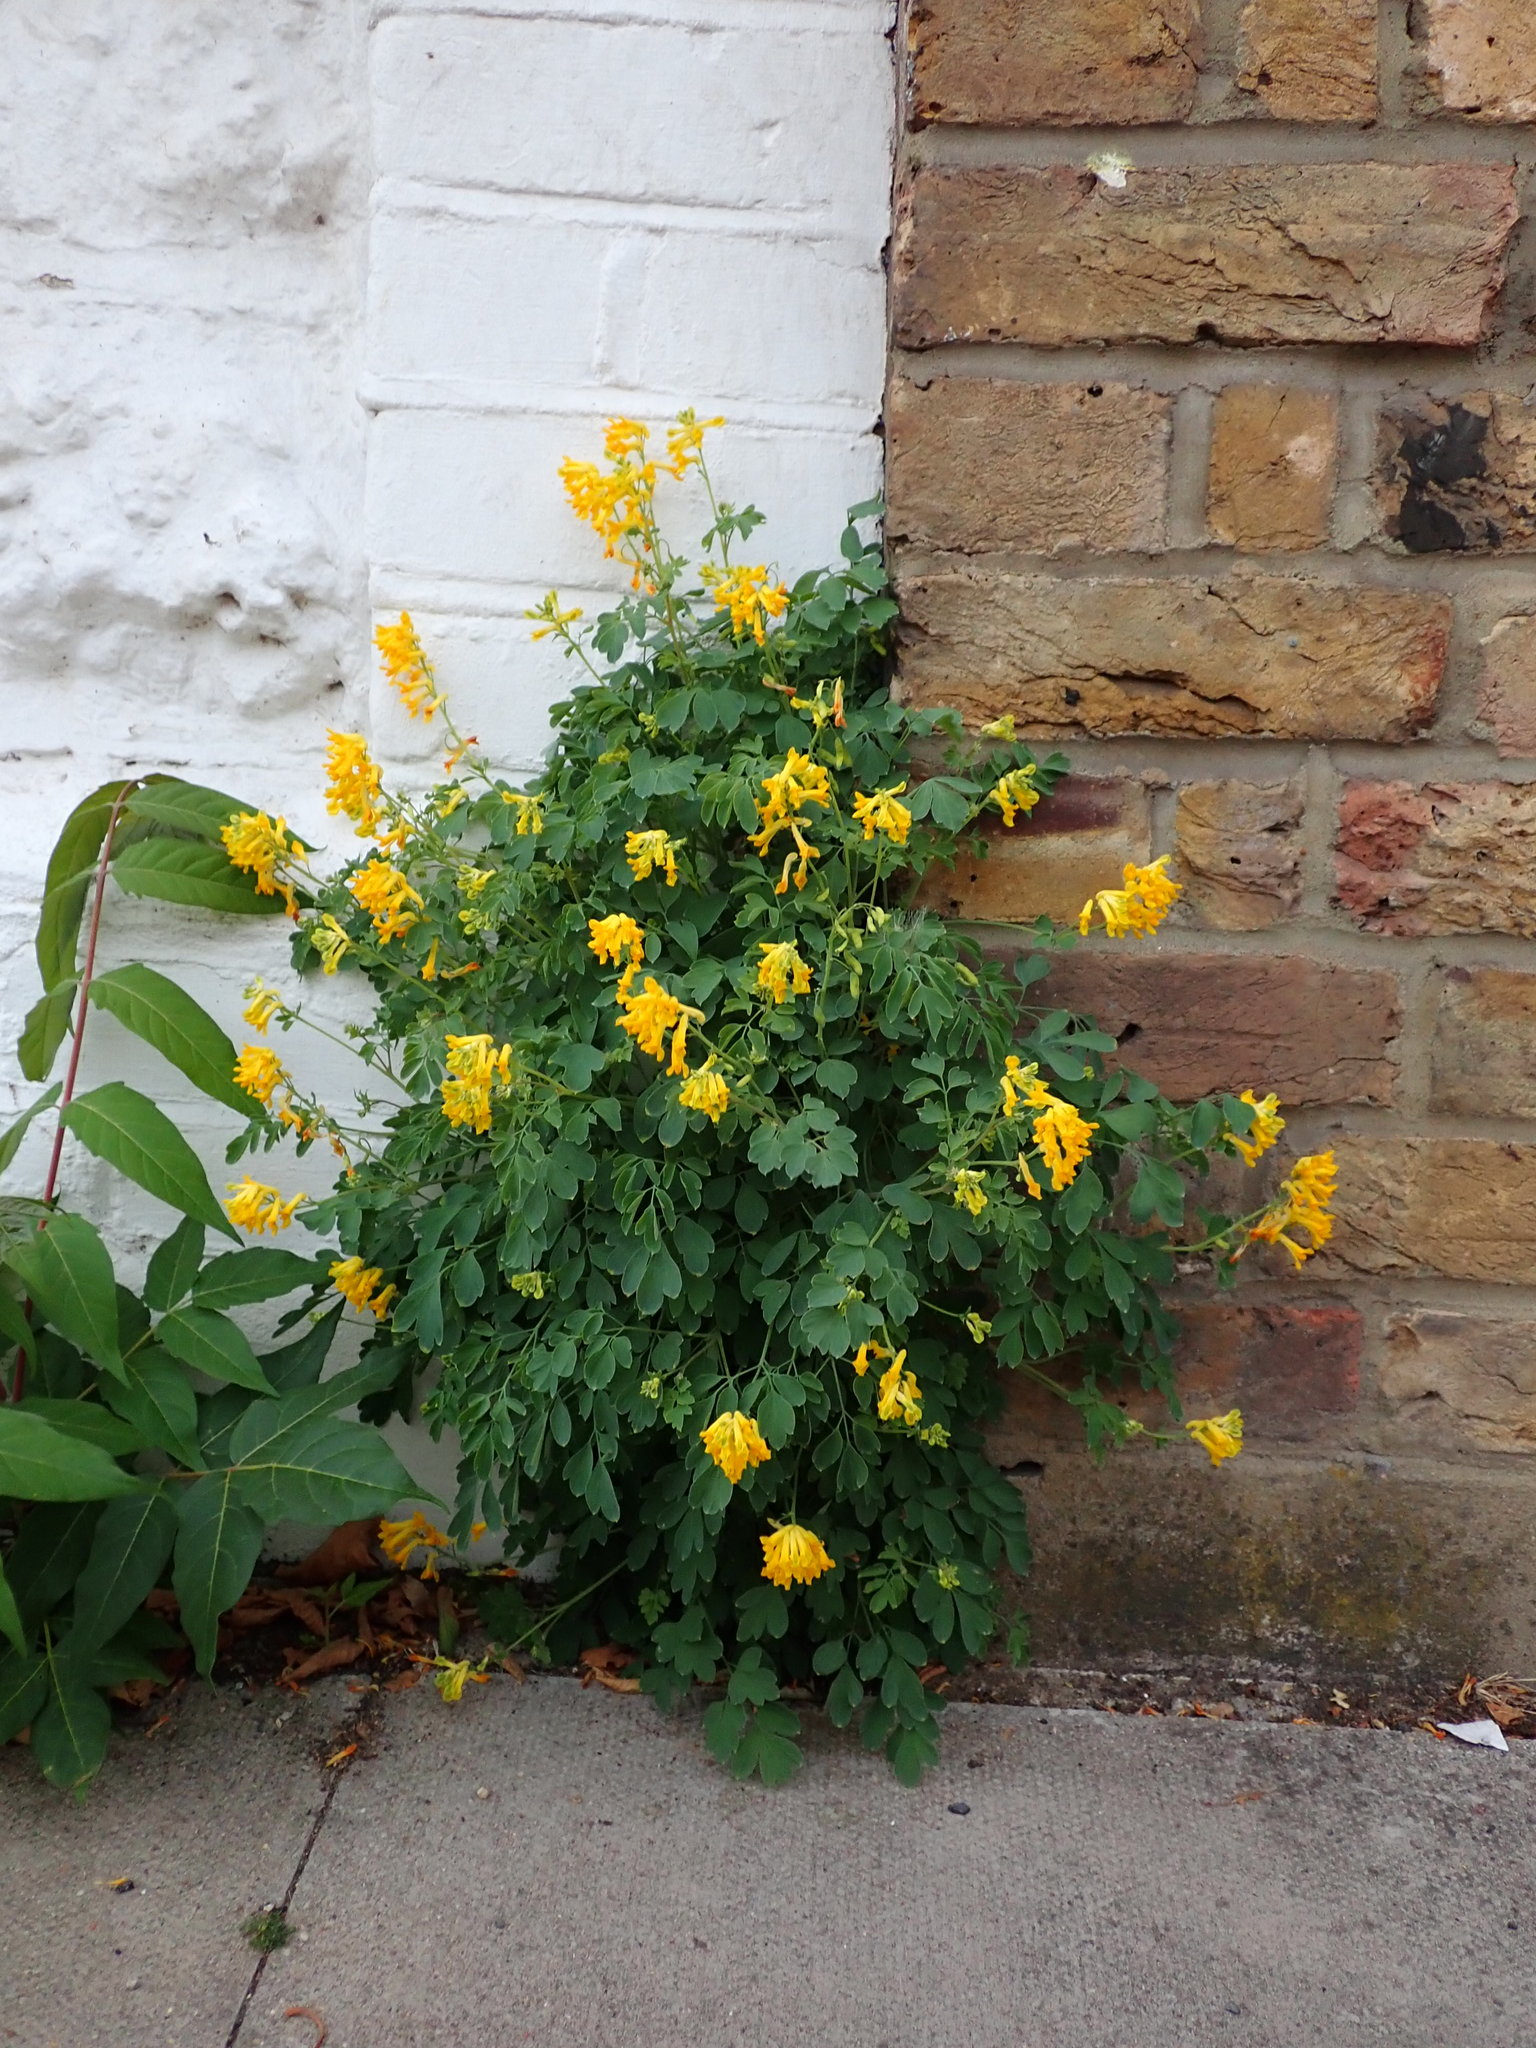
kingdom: Plantae
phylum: Tracheophyta
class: Magnoliopsida
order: Ranunculales
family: Papaveraceae
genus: Pseudofumaria
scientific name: Pseudofumaria lutea
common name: Yellow corydalis
